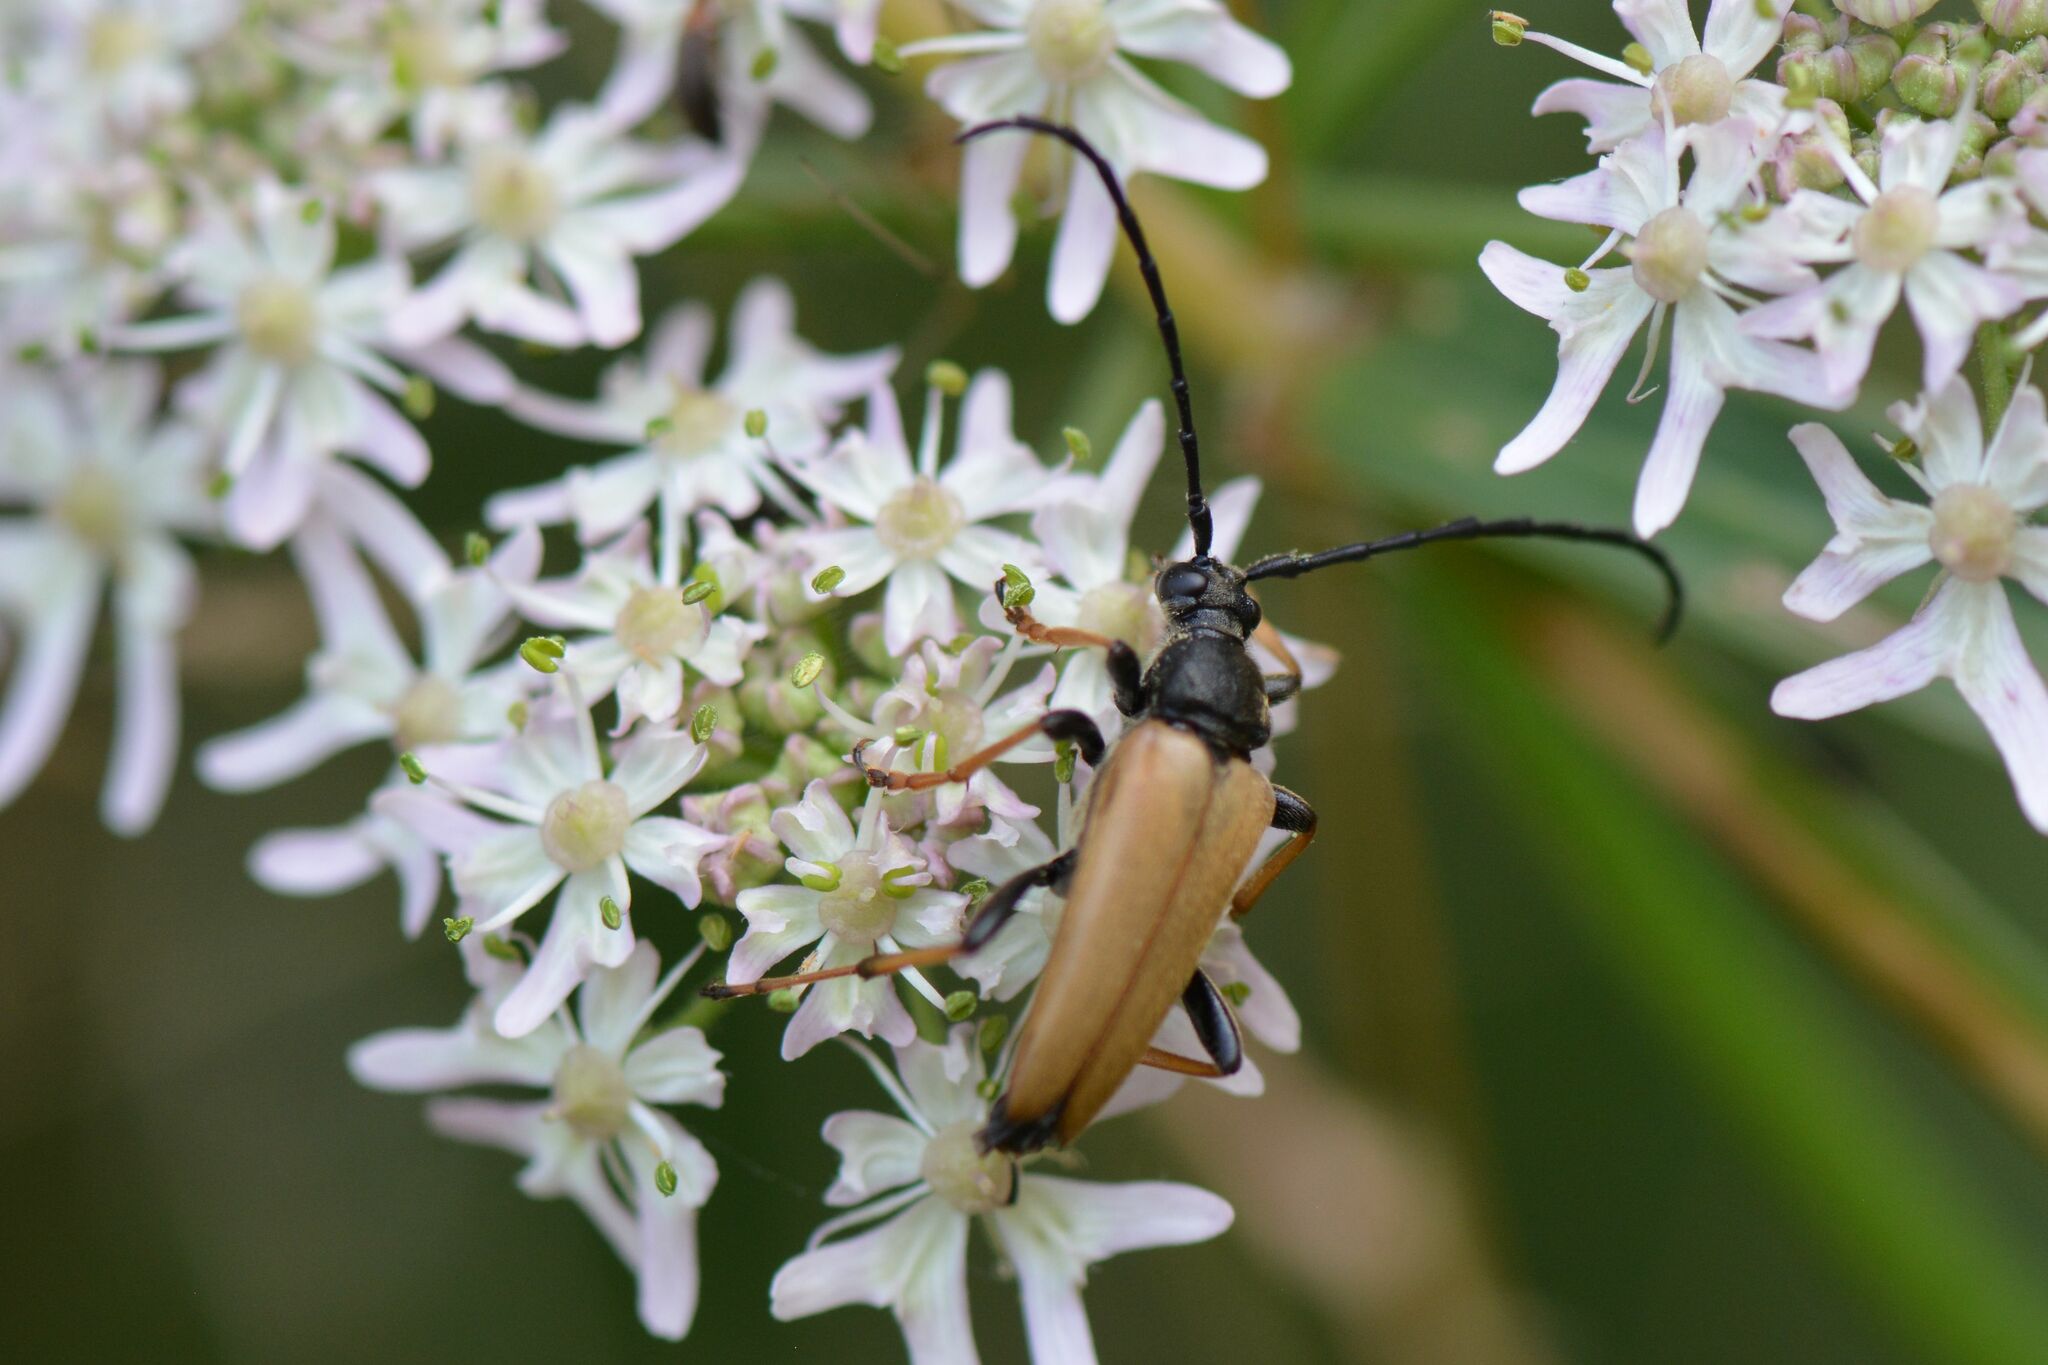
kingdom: Animalia
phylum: Arthropoda
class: Insecta
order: Coleoptera
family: Cerambycidae
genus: Stictoleptura
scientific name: Stictoleptura rubra
